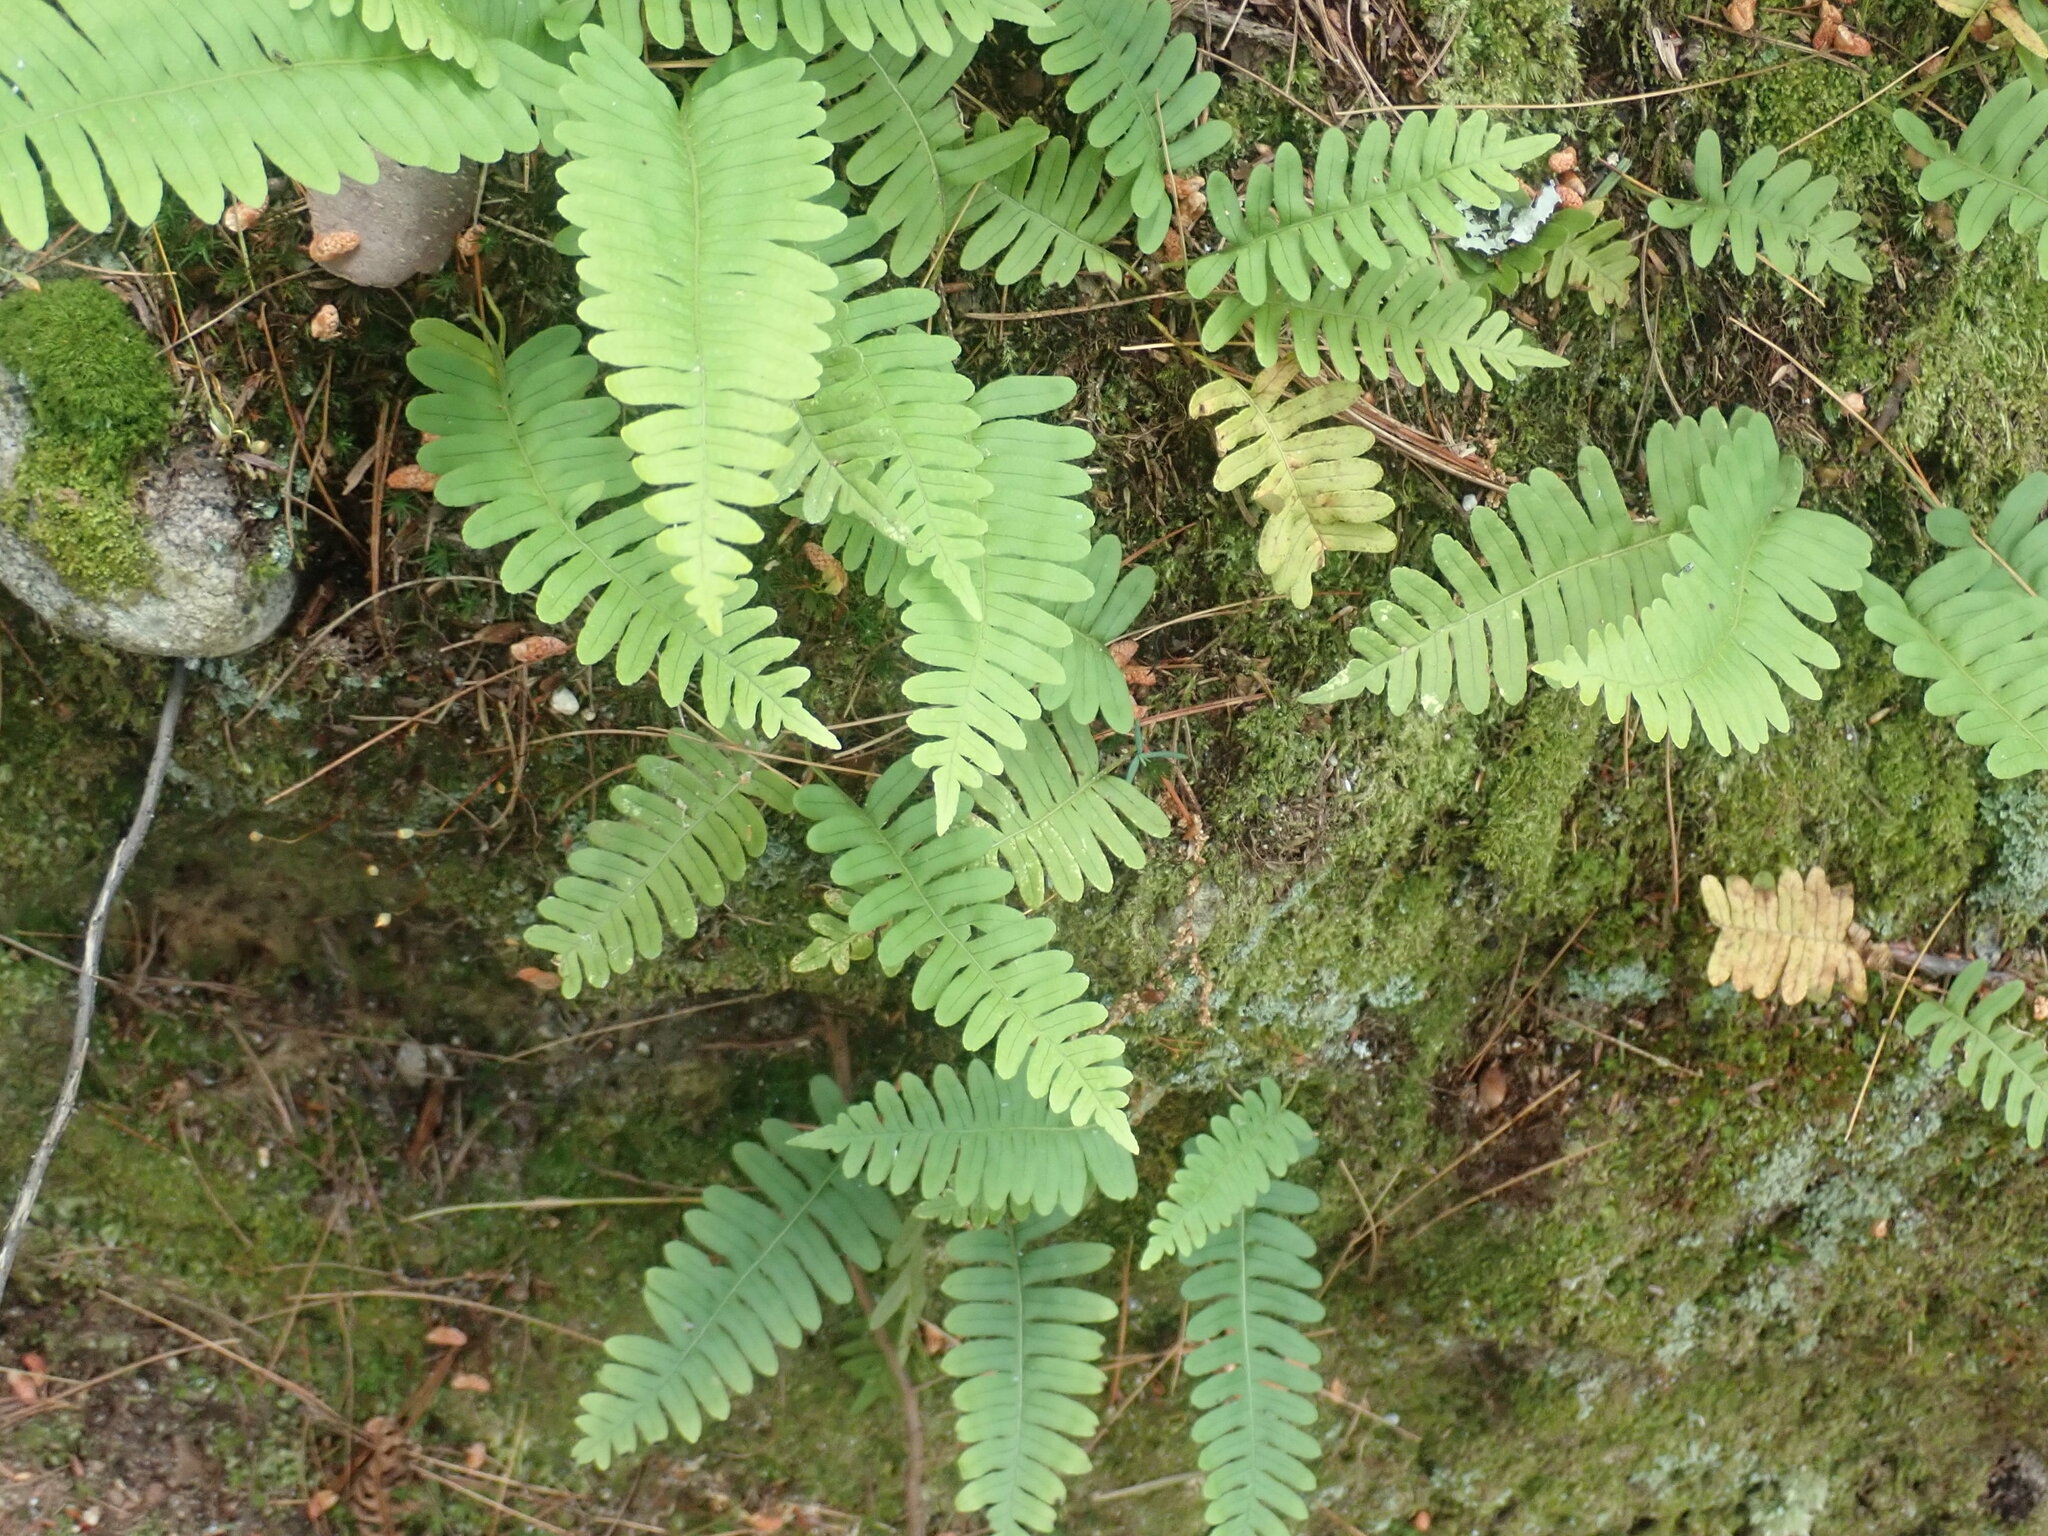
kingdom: Plantae
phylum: Tracheophyta
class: Polypodiopsida
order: Polypodiales
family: Polypodiaceae
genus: Polypodium
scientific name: Polypodium
